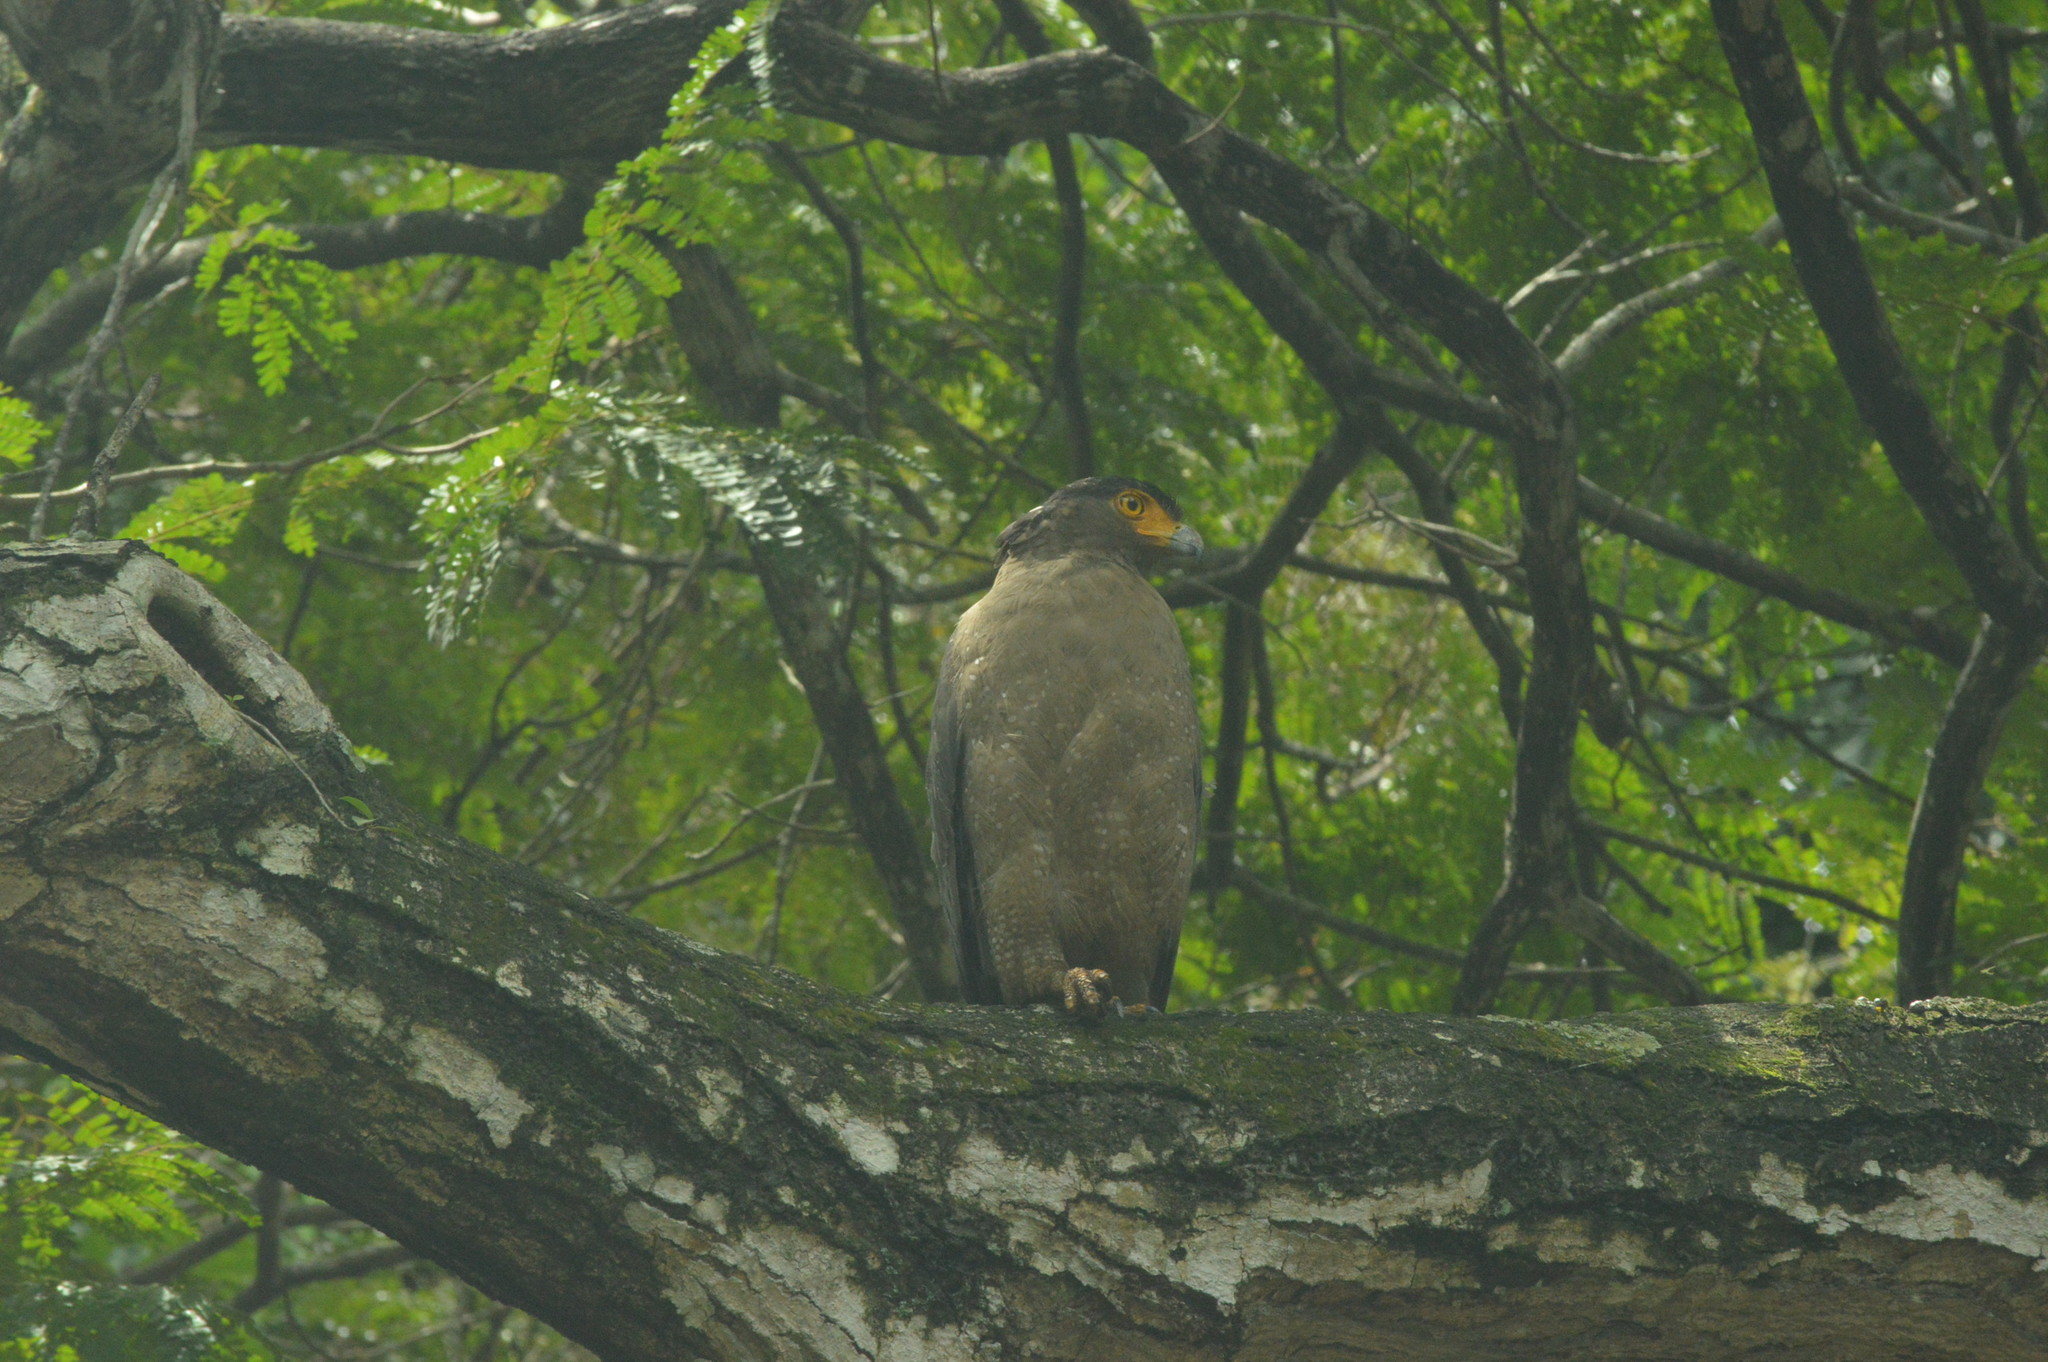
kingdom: Animalia
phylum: Chordata
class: Aves
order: Accipitriformes
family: Accipitridae
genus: Spilornis
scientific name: Spilornis cheela
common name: Crested serpent eagle
